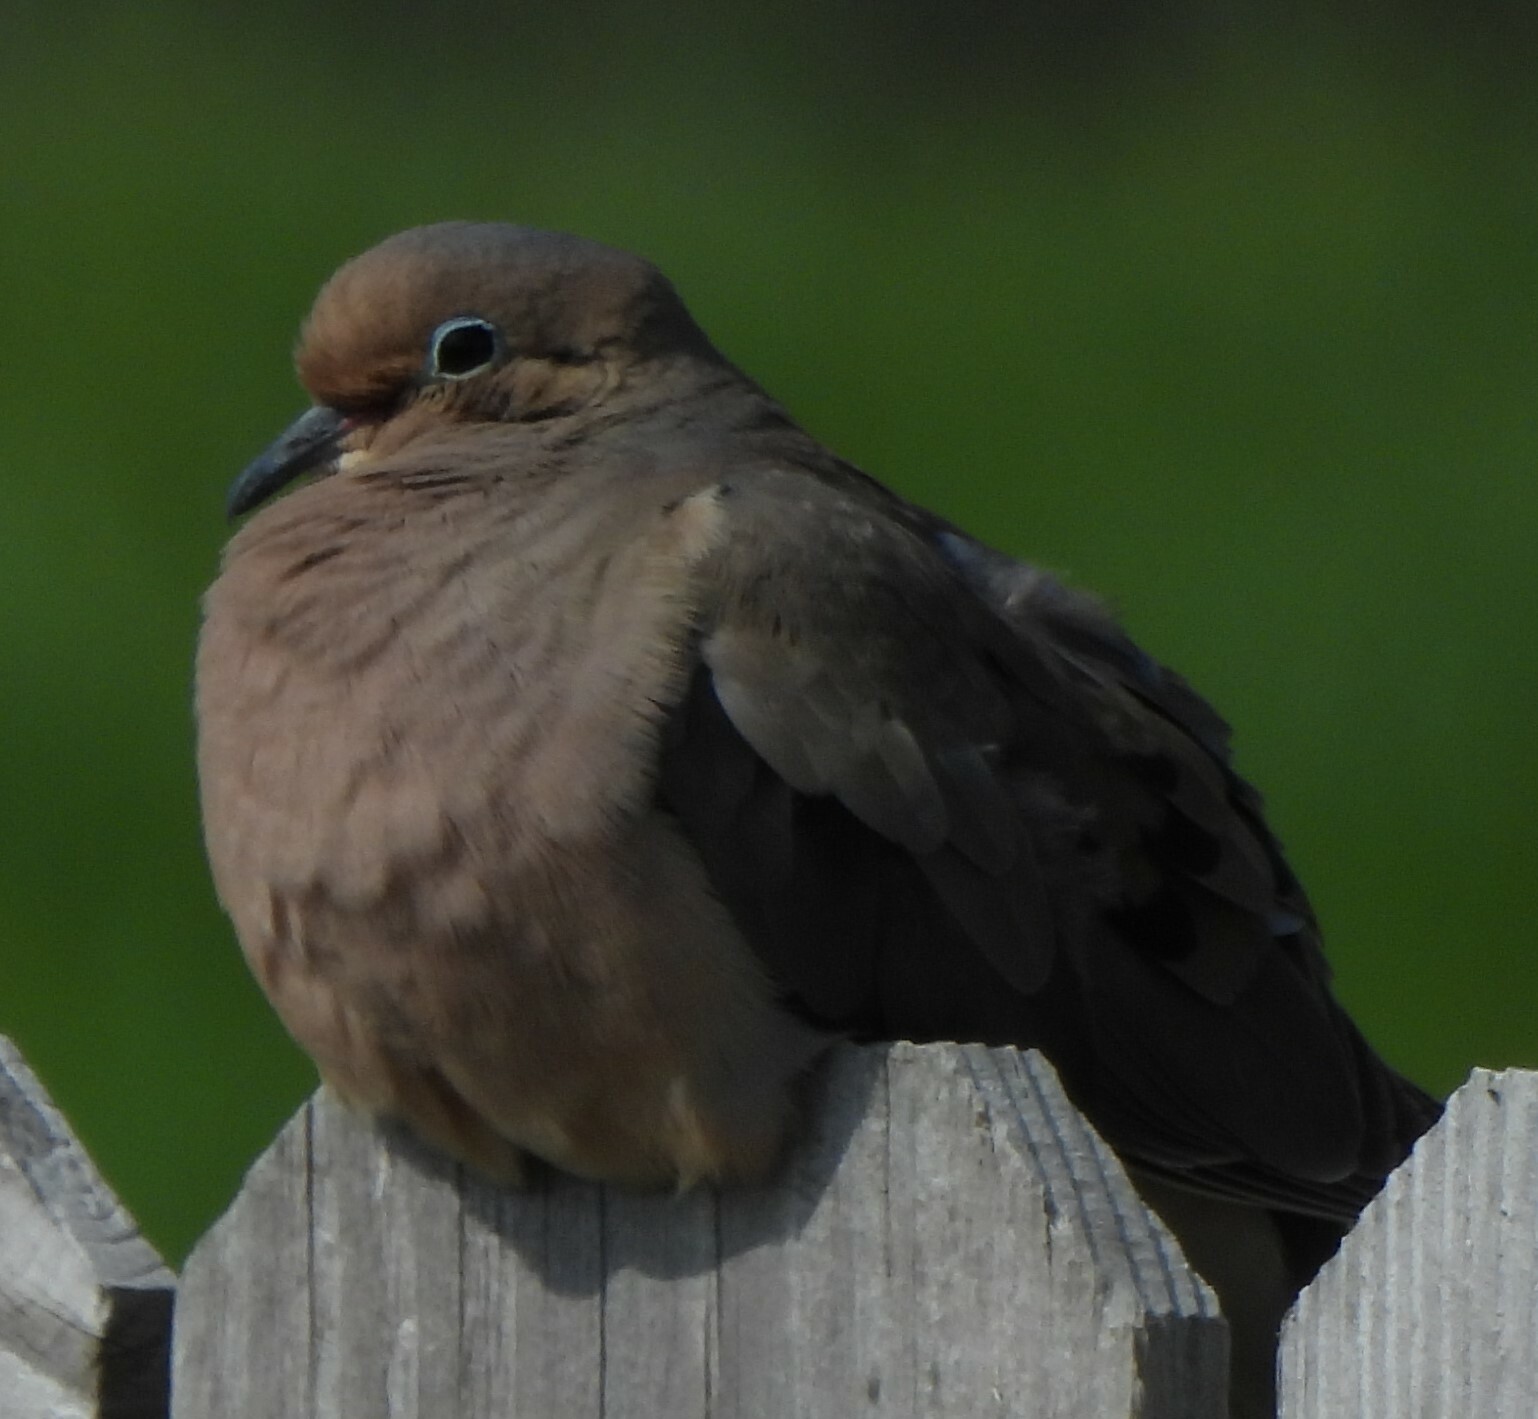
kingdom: Animalia
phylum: Chordata
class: Aves
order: Columbiformes
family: Columbidae
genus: Zenaida
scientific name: Zenaida macroura
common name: Mourning dove
